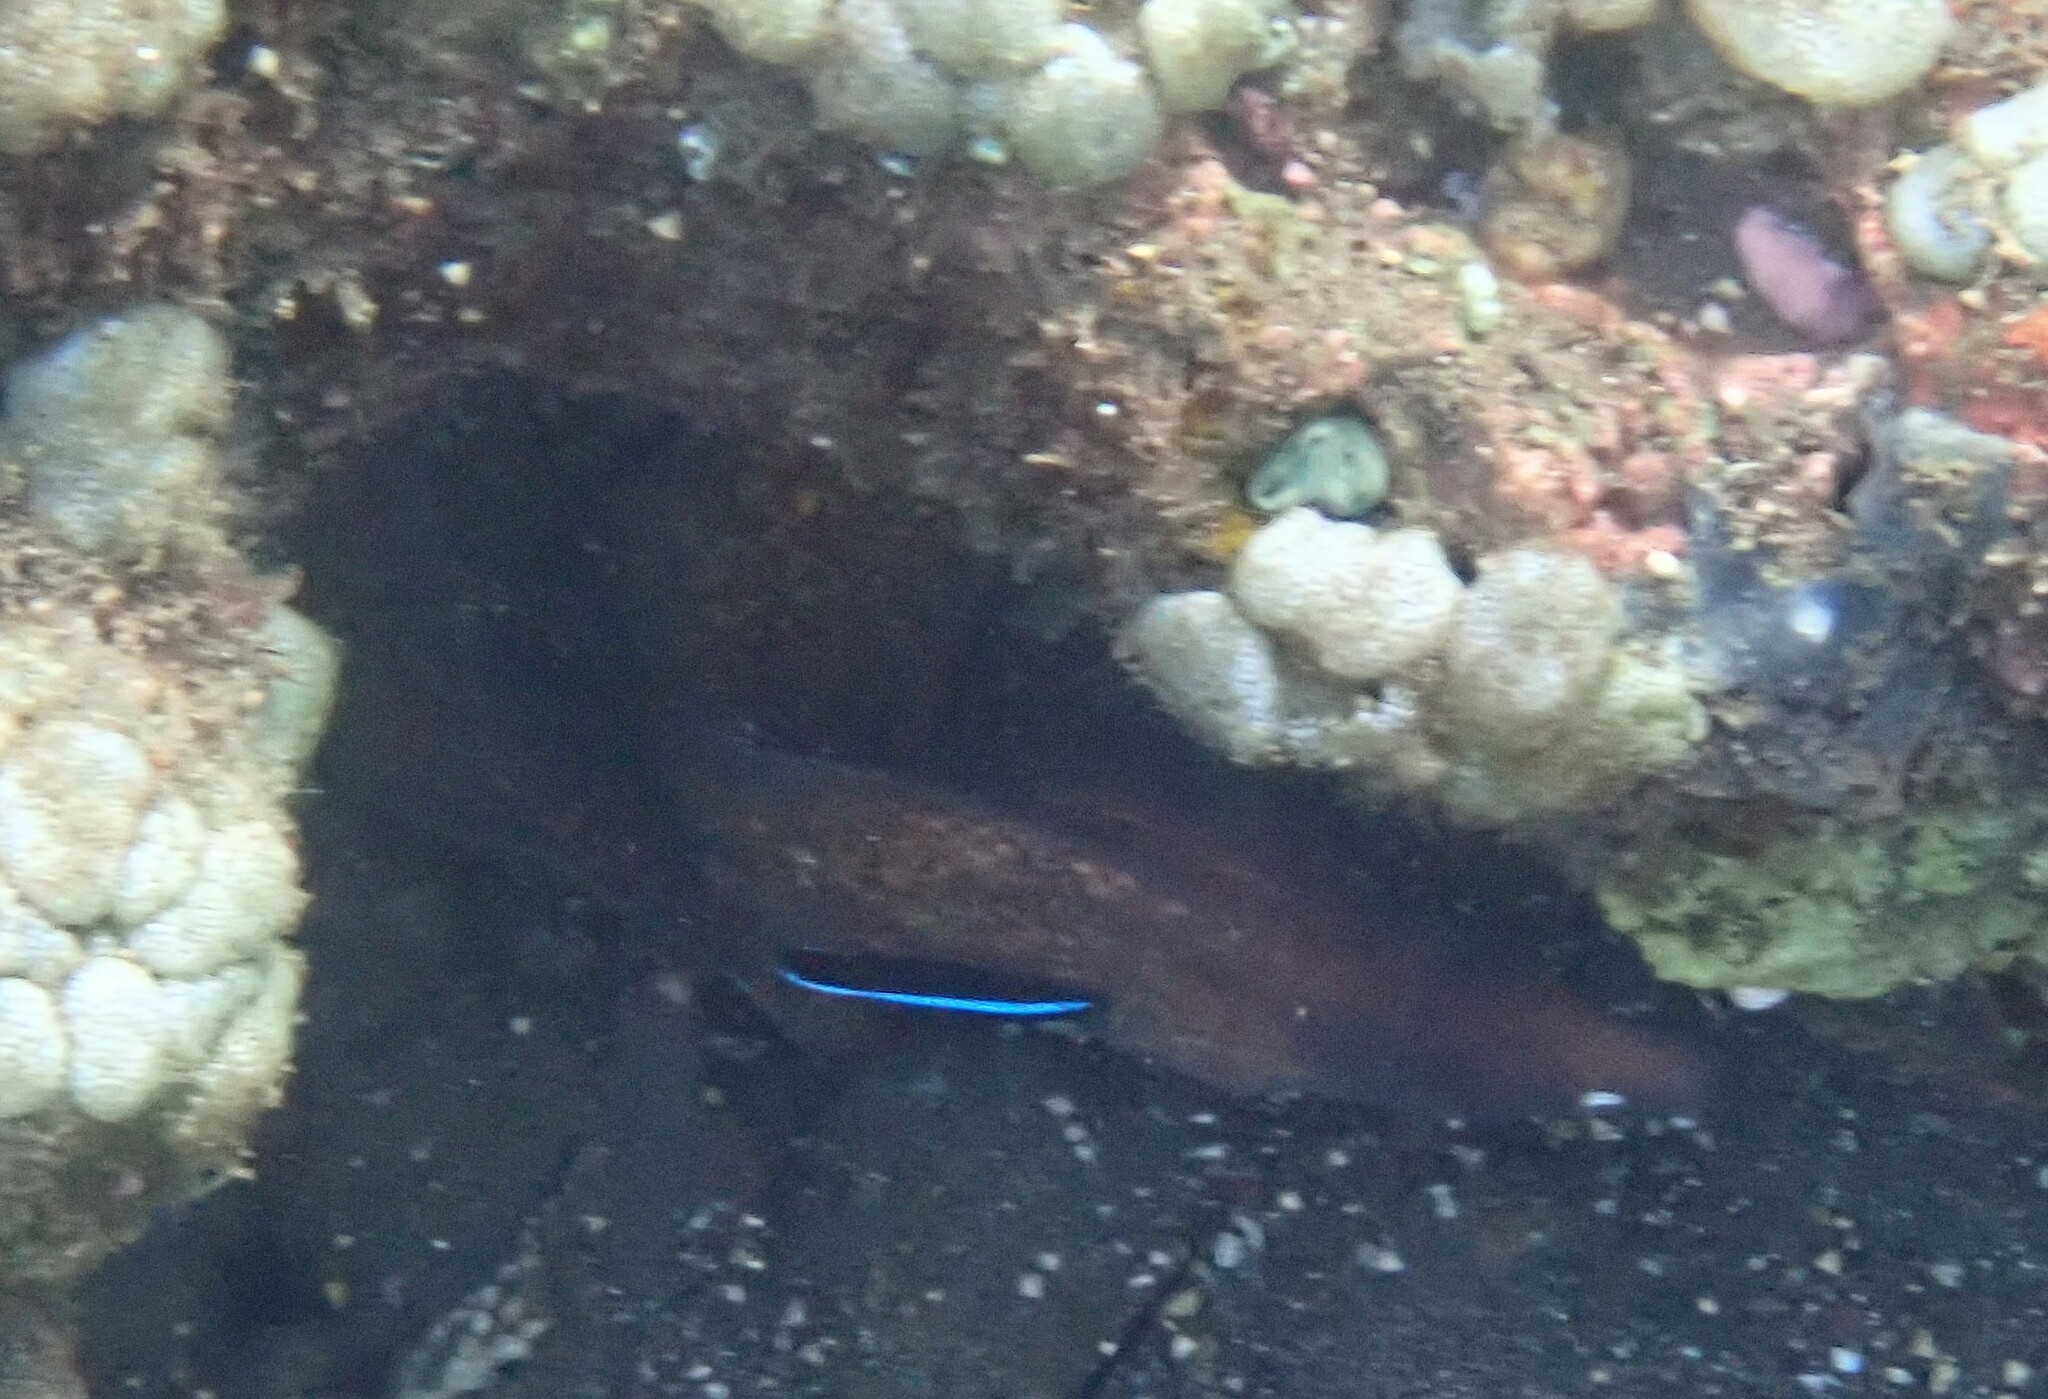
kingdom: Animalia
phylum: Chordata
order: Anguilliformes
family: Muraenidae
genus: Gymnothorax
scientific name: Gymnothorax thyrsoideus
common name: Greyface moray
